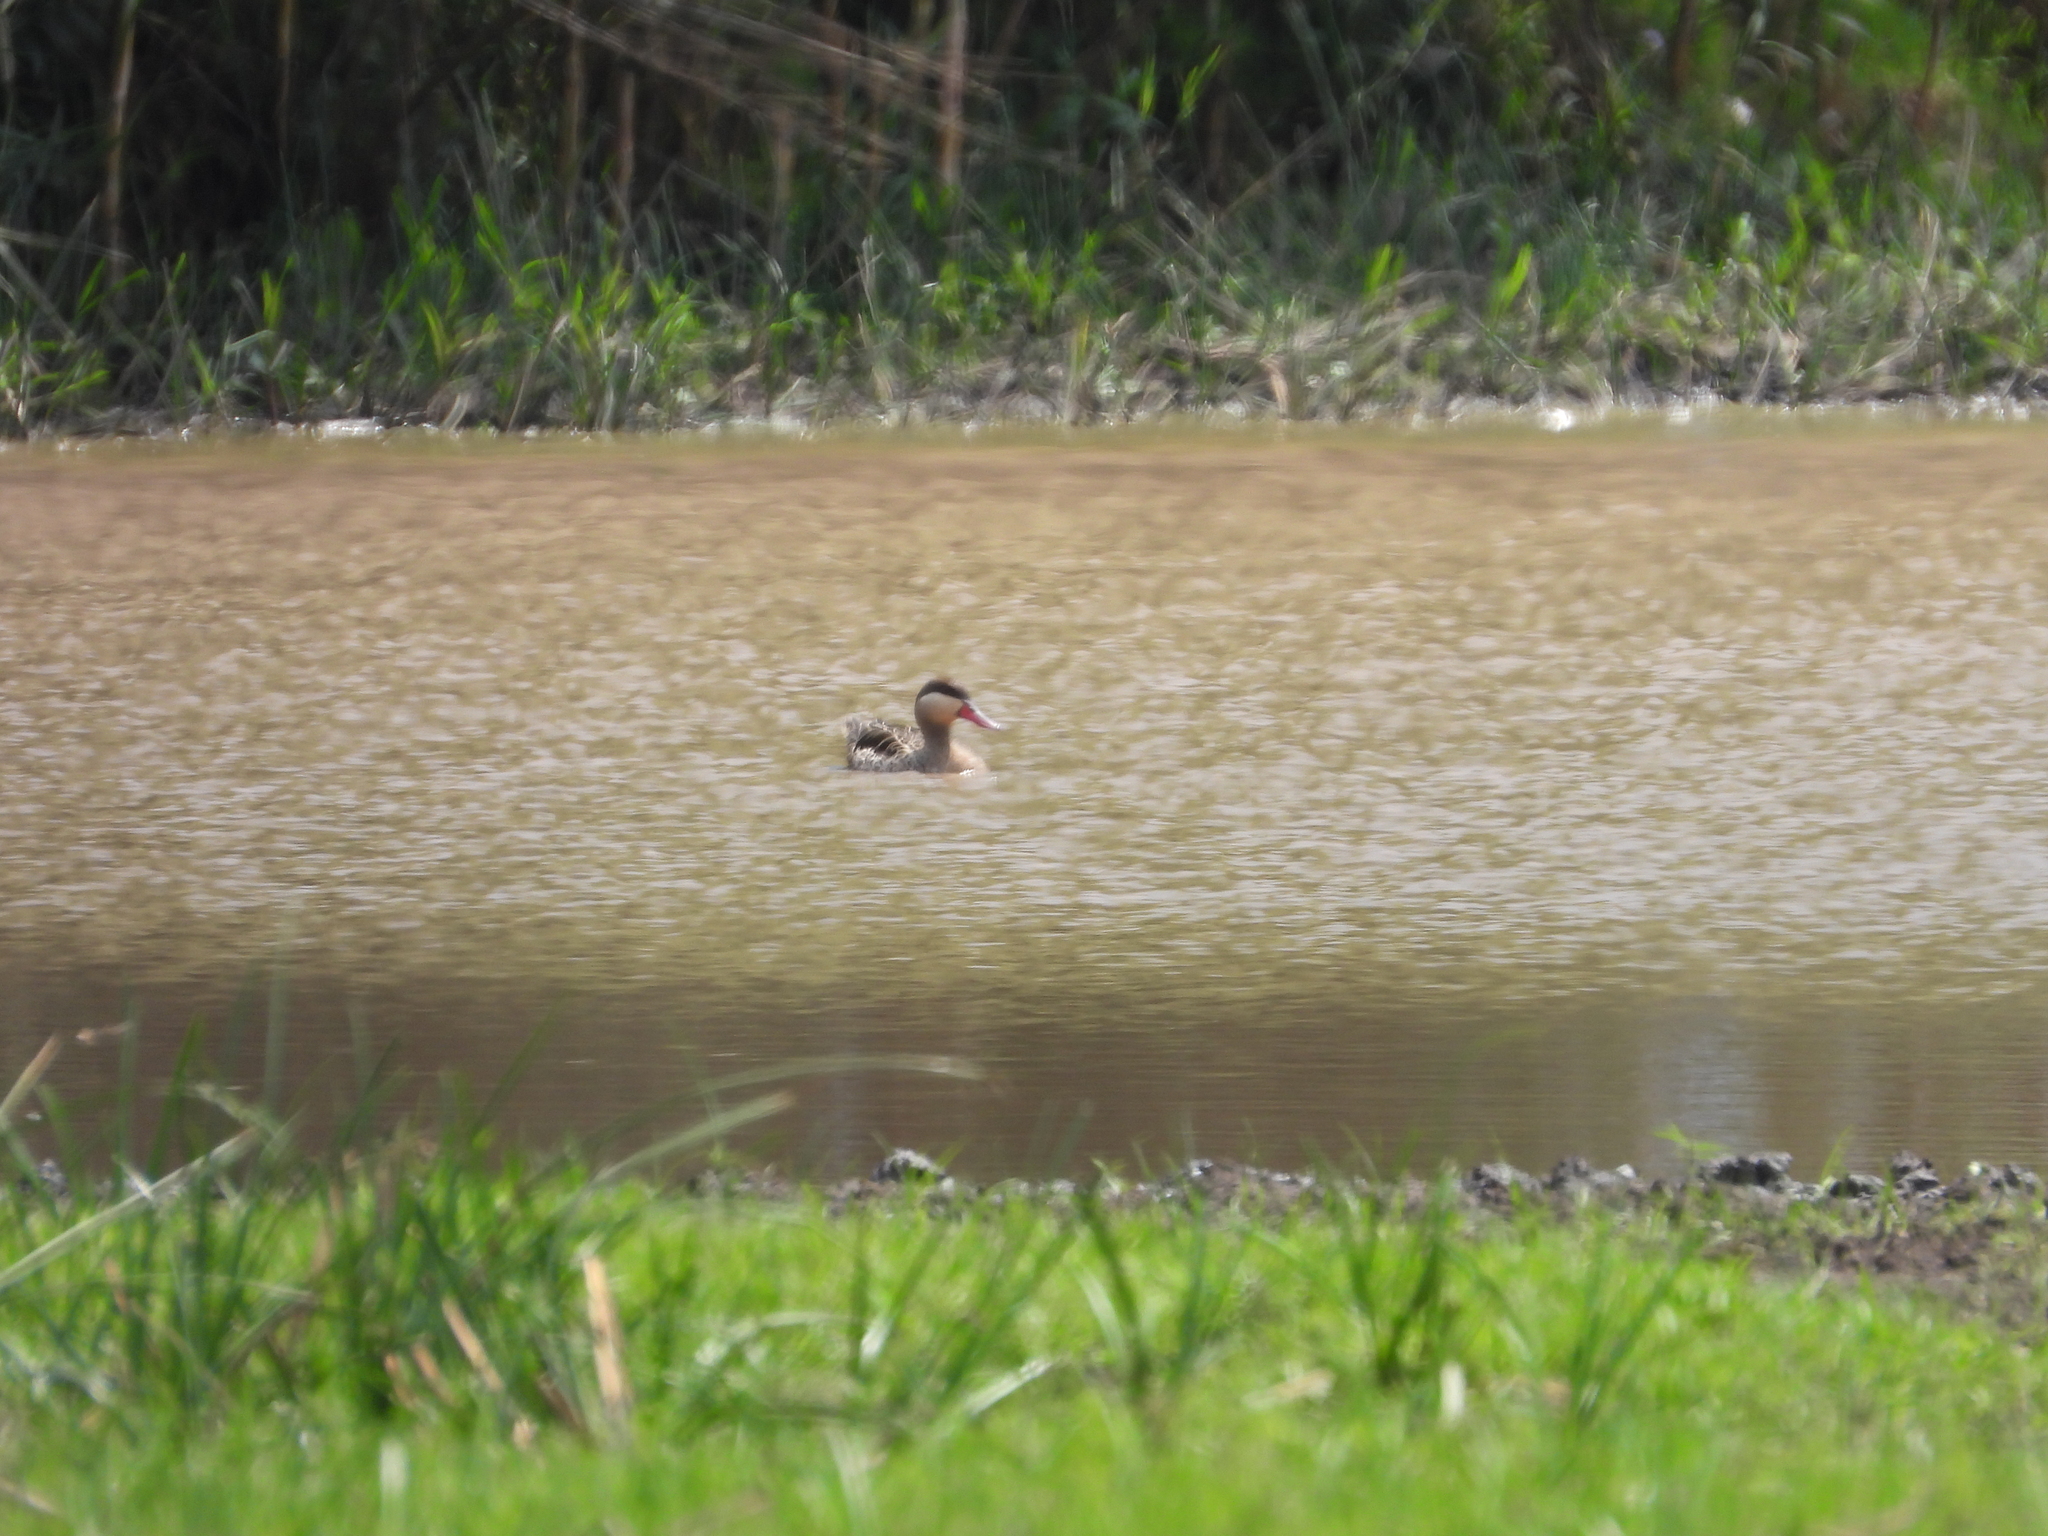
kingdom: Animalia
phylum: Chordata
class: Aves
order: Anseriformes
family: Anatidae
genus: Anas
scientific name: Anas erythrorhyncha
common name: Red-billed teal
